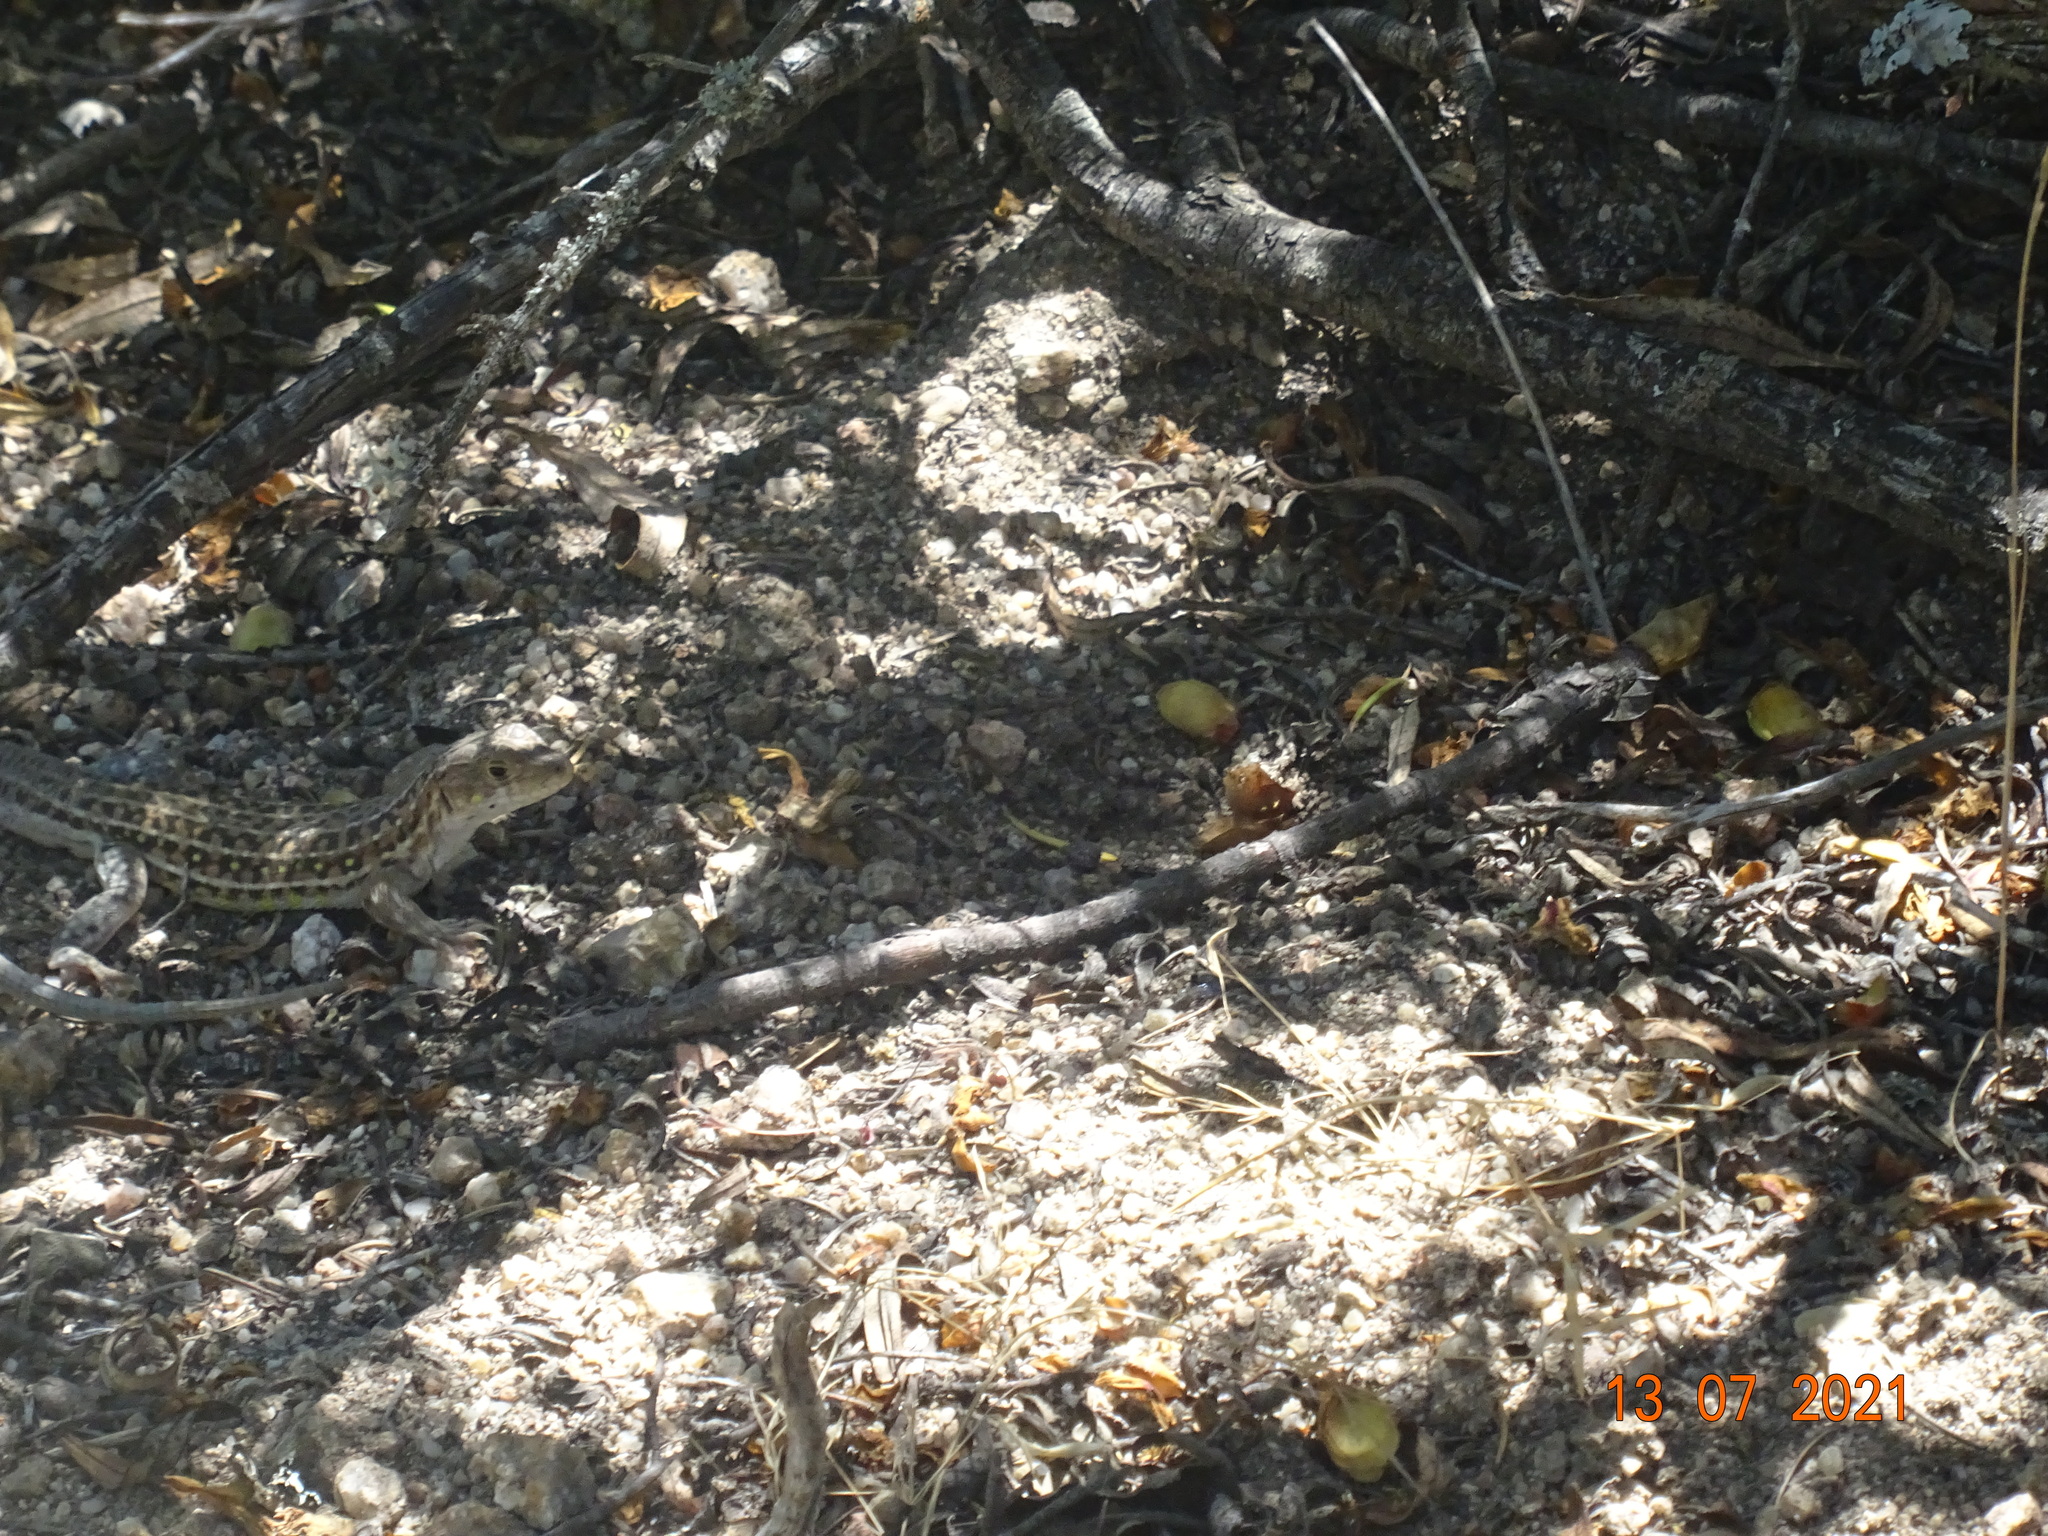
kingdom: Animalia
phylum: Chordata
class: Squamata
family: Lacertidae
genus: Acanthodactylus
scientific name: Acanthodactylus erythrurus
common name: Spiny-footed lizard
